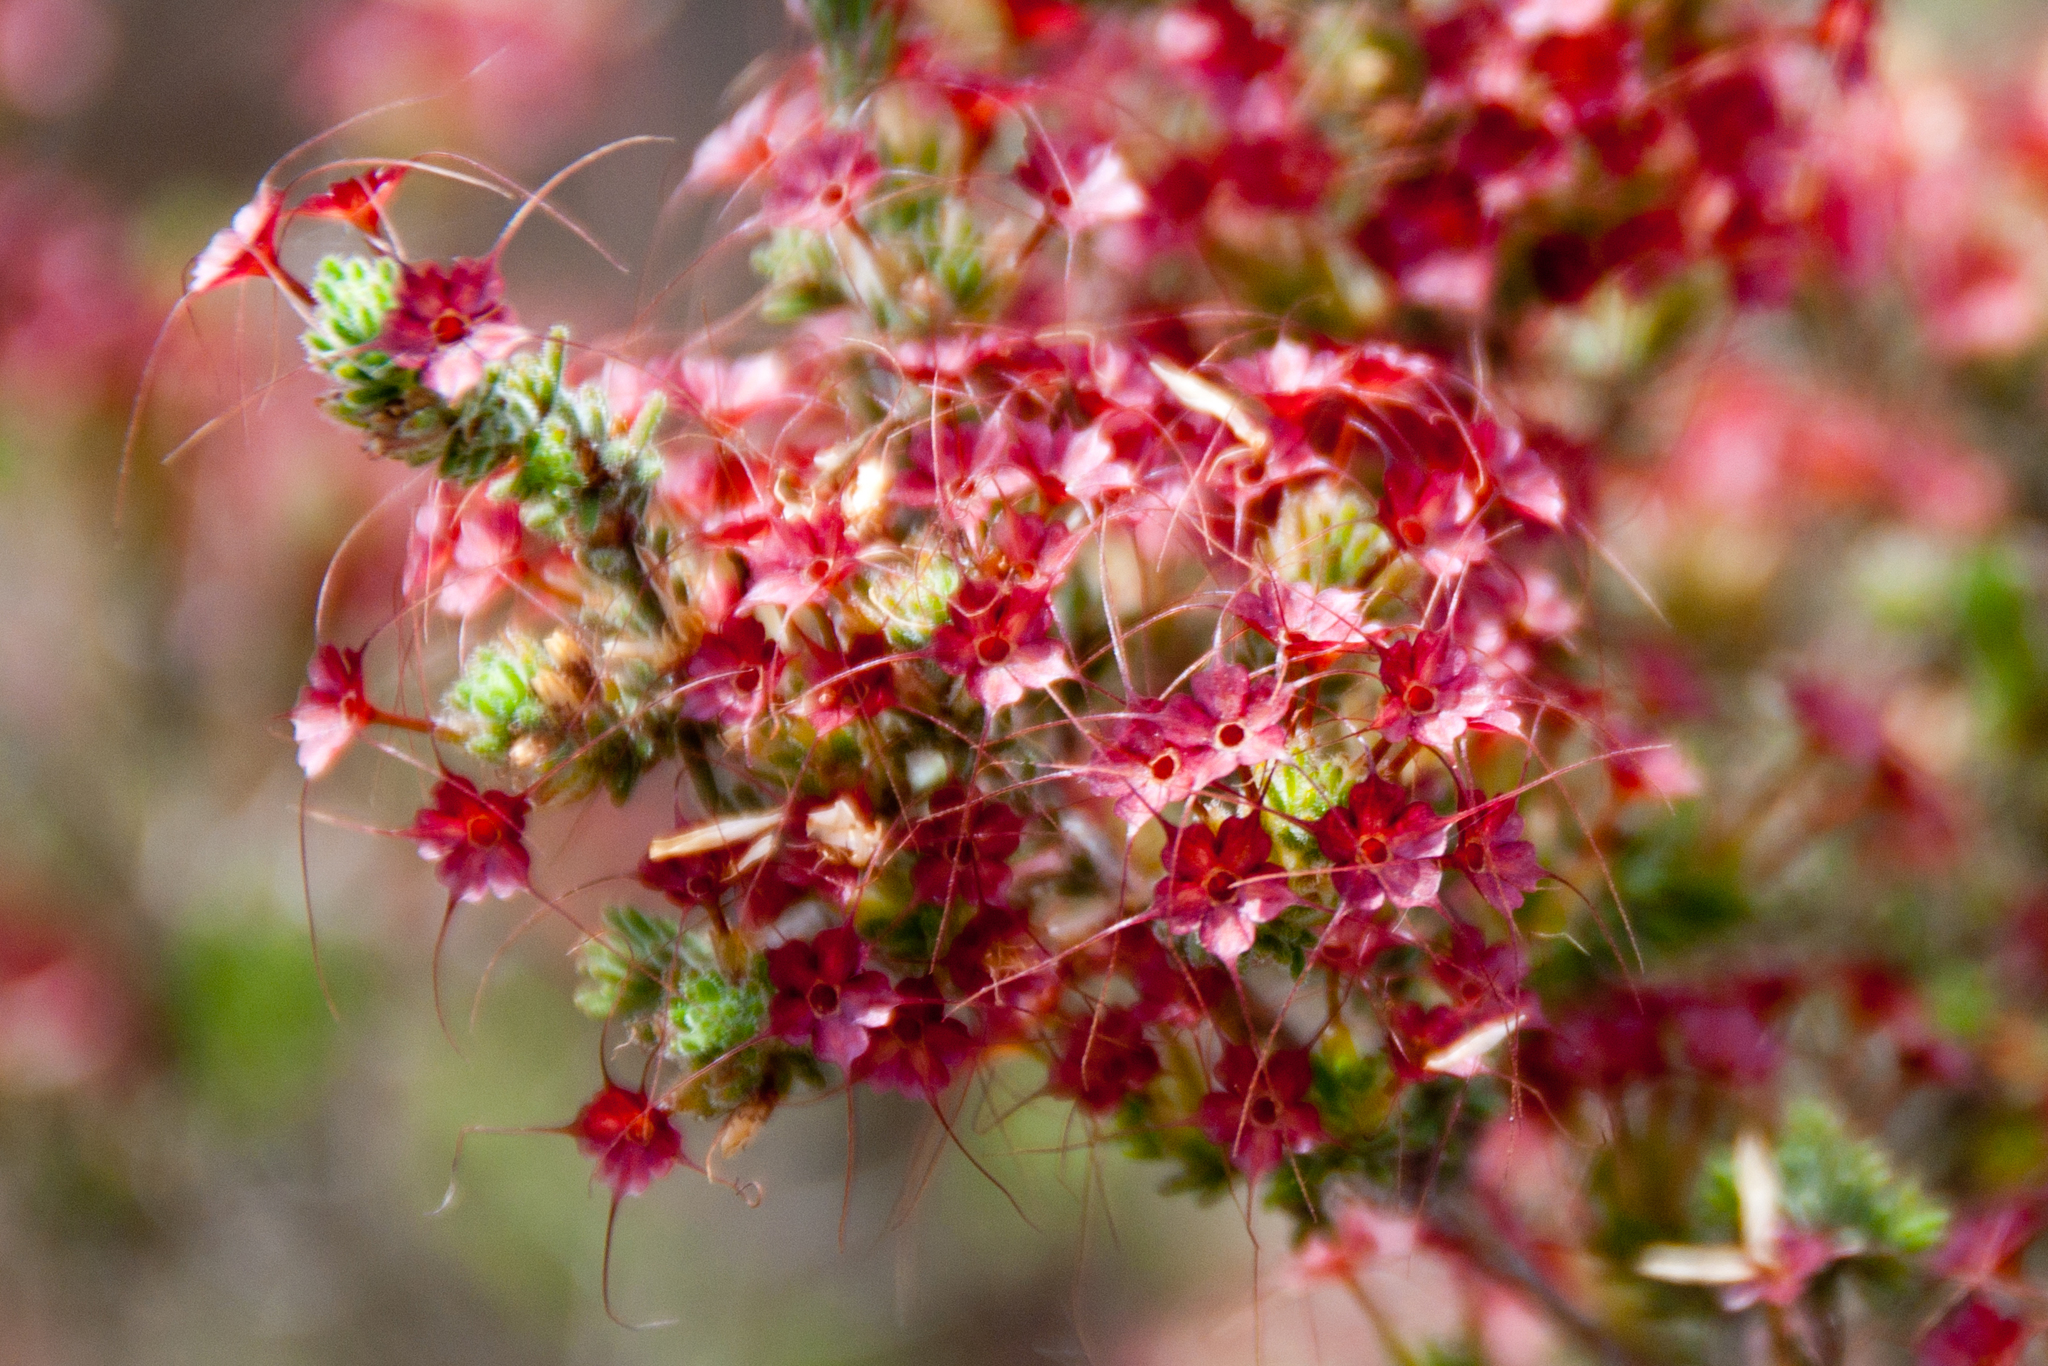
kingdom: Plantae
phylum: Tracheophyta
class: Magnoliopsida
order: Myrtales
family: Myrtaceae
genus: Calytrix
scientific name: Calytrix tetragona
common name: Common fringe myrtle
